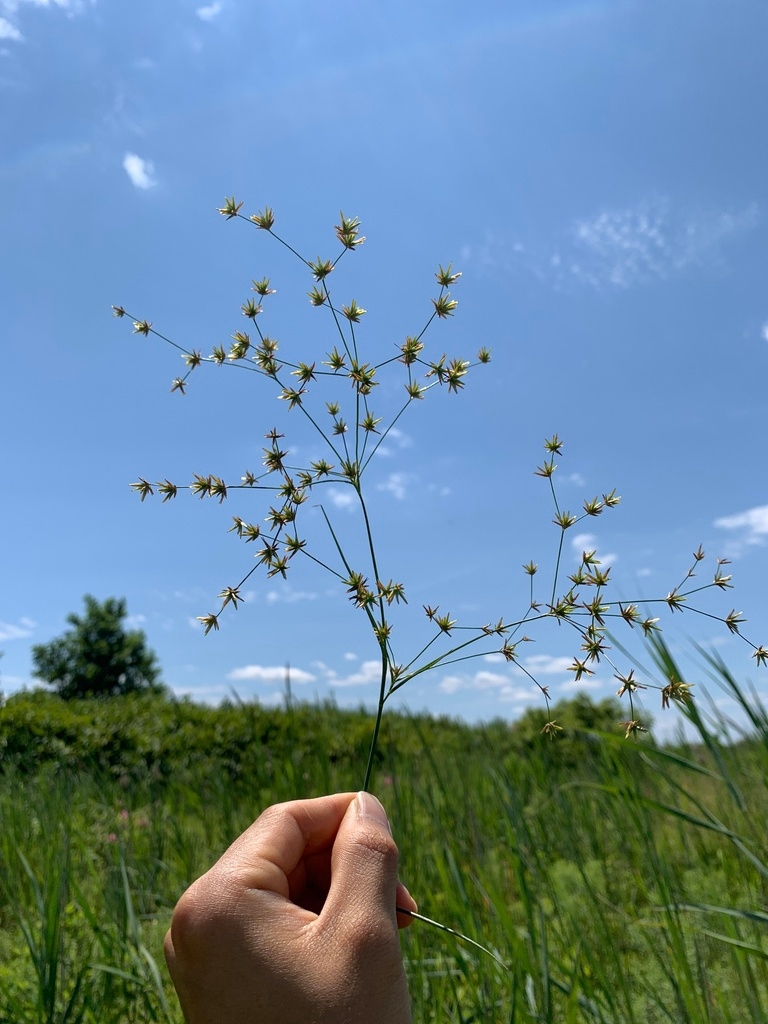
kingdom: Plantae
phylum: Tracheophyta
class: Liliopsida
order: Poales
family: Juncaceae
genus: Juncus
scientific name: Juncus diffusissimus
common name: Slimpod rush
